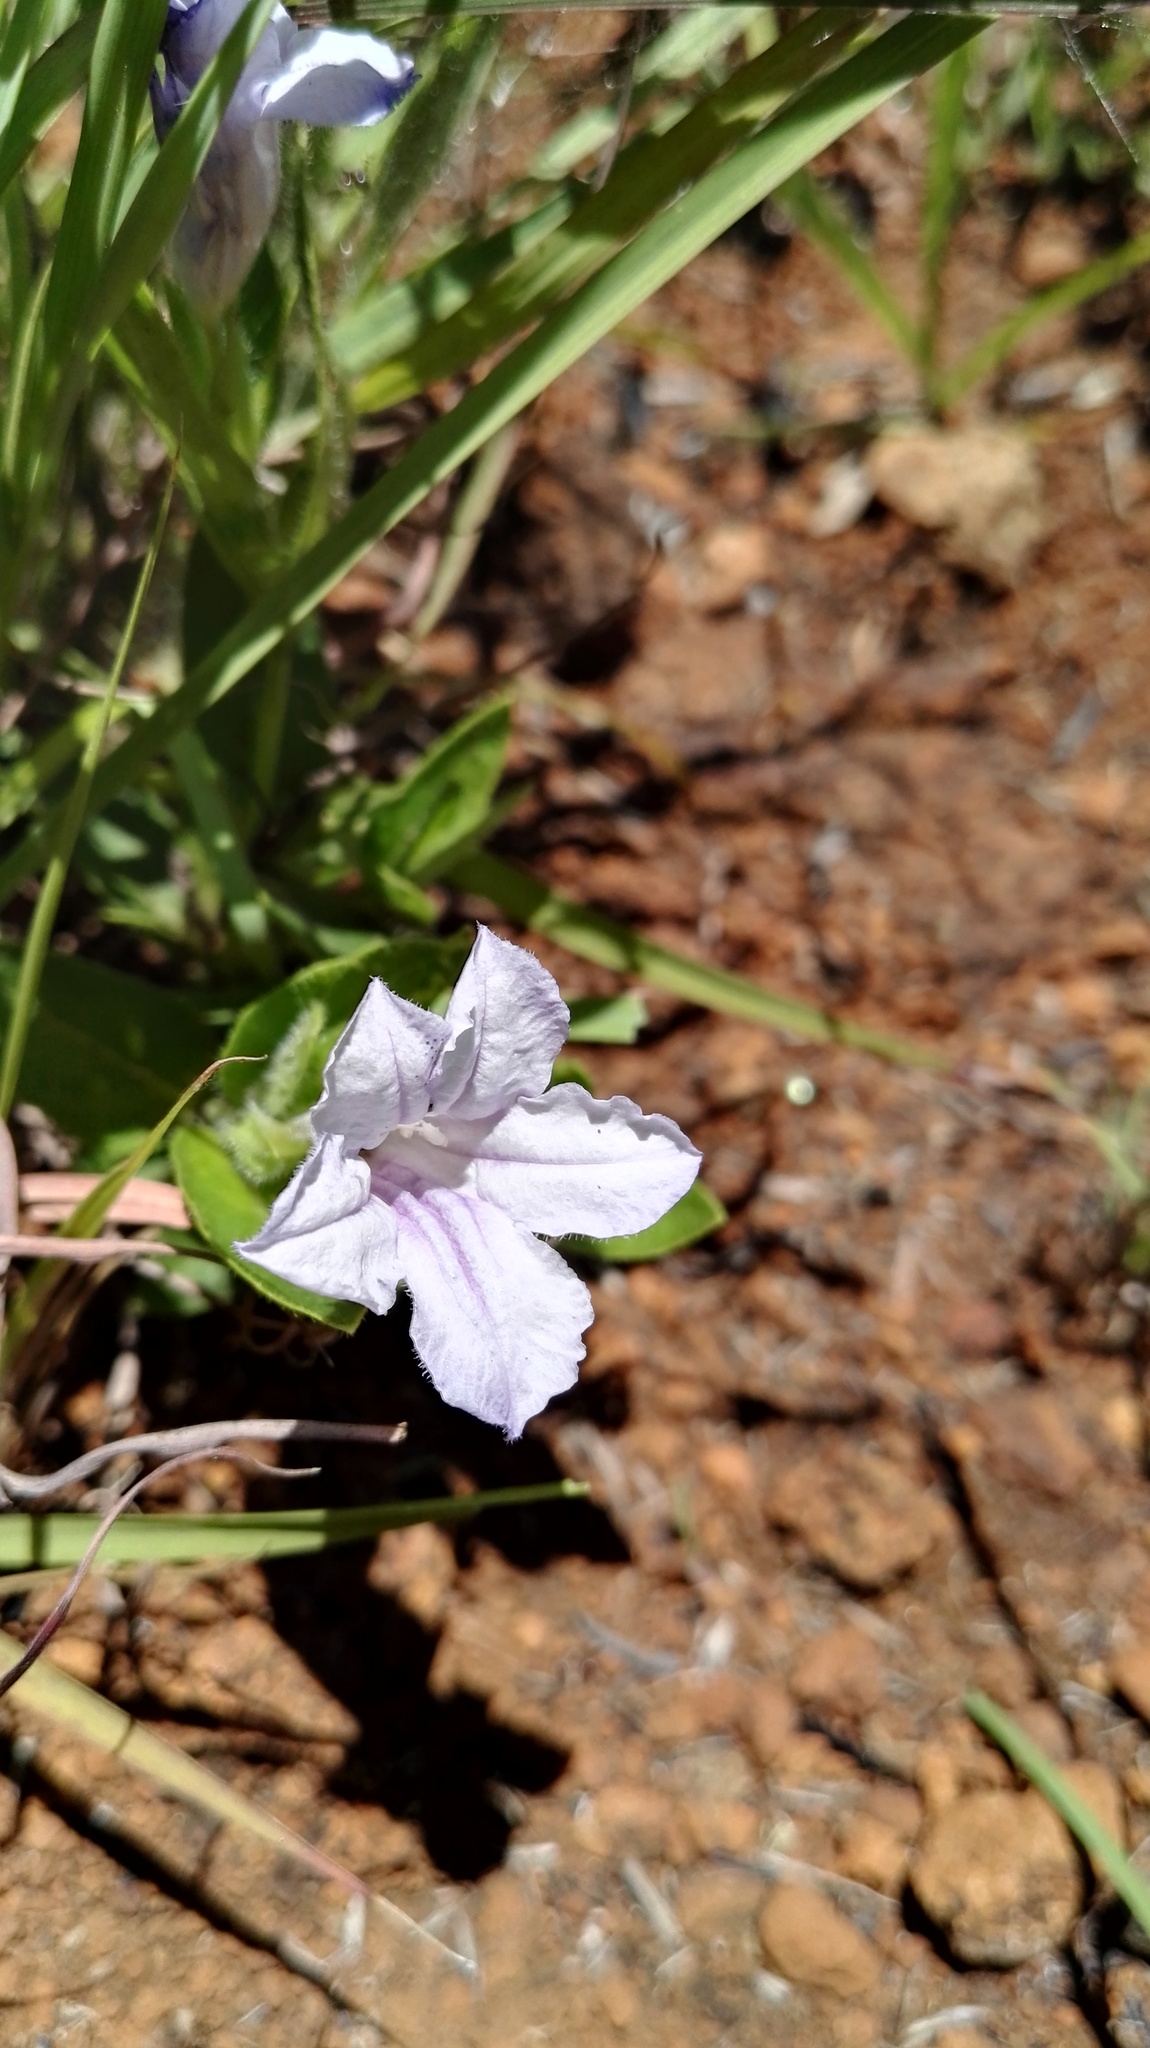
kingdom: Plantae
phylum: Tracheophyta
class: Magnoliopsida
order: Lamiales
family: Acanthaceae
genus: Ruellia
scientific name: Ruellia cordata
